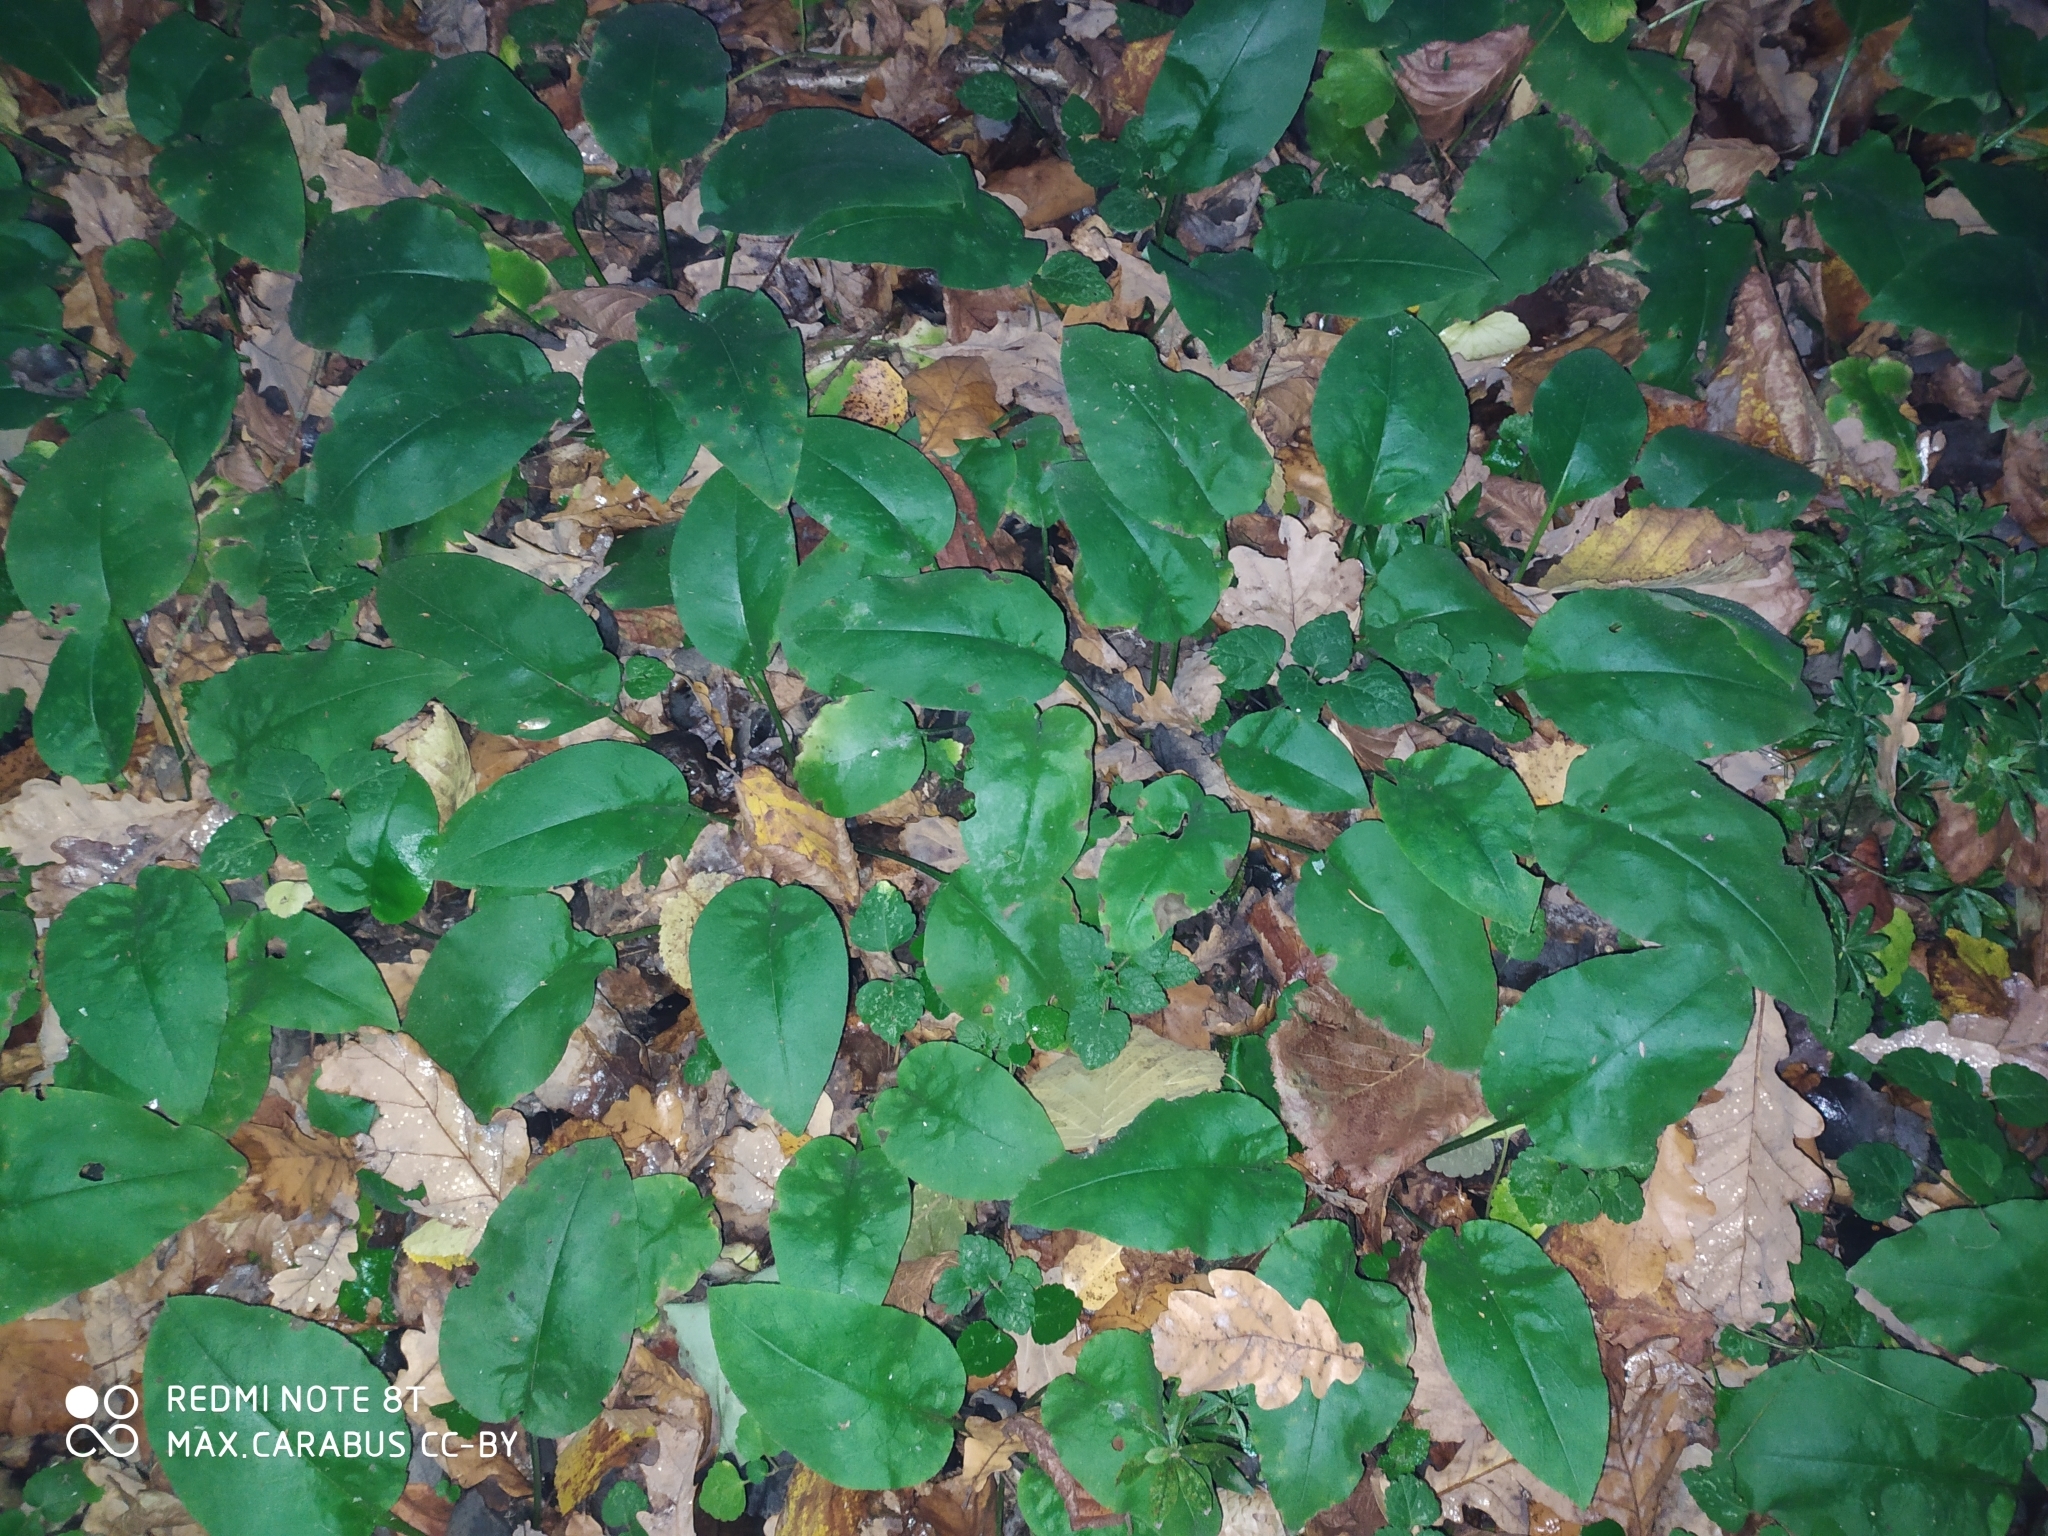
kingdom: Plantae
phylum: Tracheophyta
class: Magnoliopsida
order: Boraginales
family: Boraginaceae
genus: Pulmonaria
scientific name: Pulmonaria obscura
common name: Suffolk lungwort
